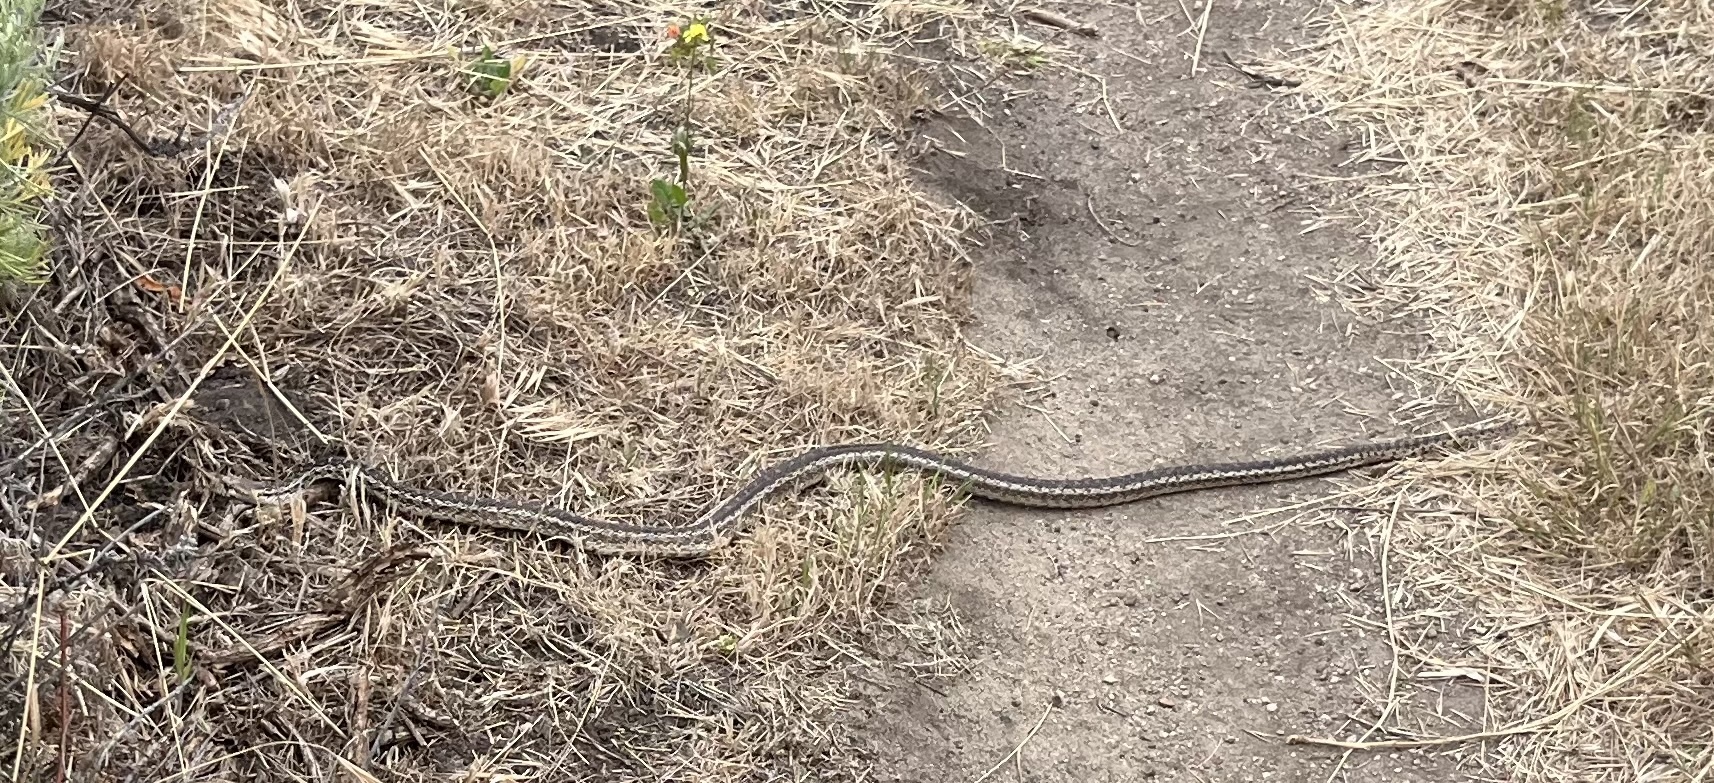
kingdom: Animalia
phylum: Chordata
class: Squamata
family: Colubridae
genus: Pituophis
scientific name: Pituophis catenifer
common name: Gopher snake
